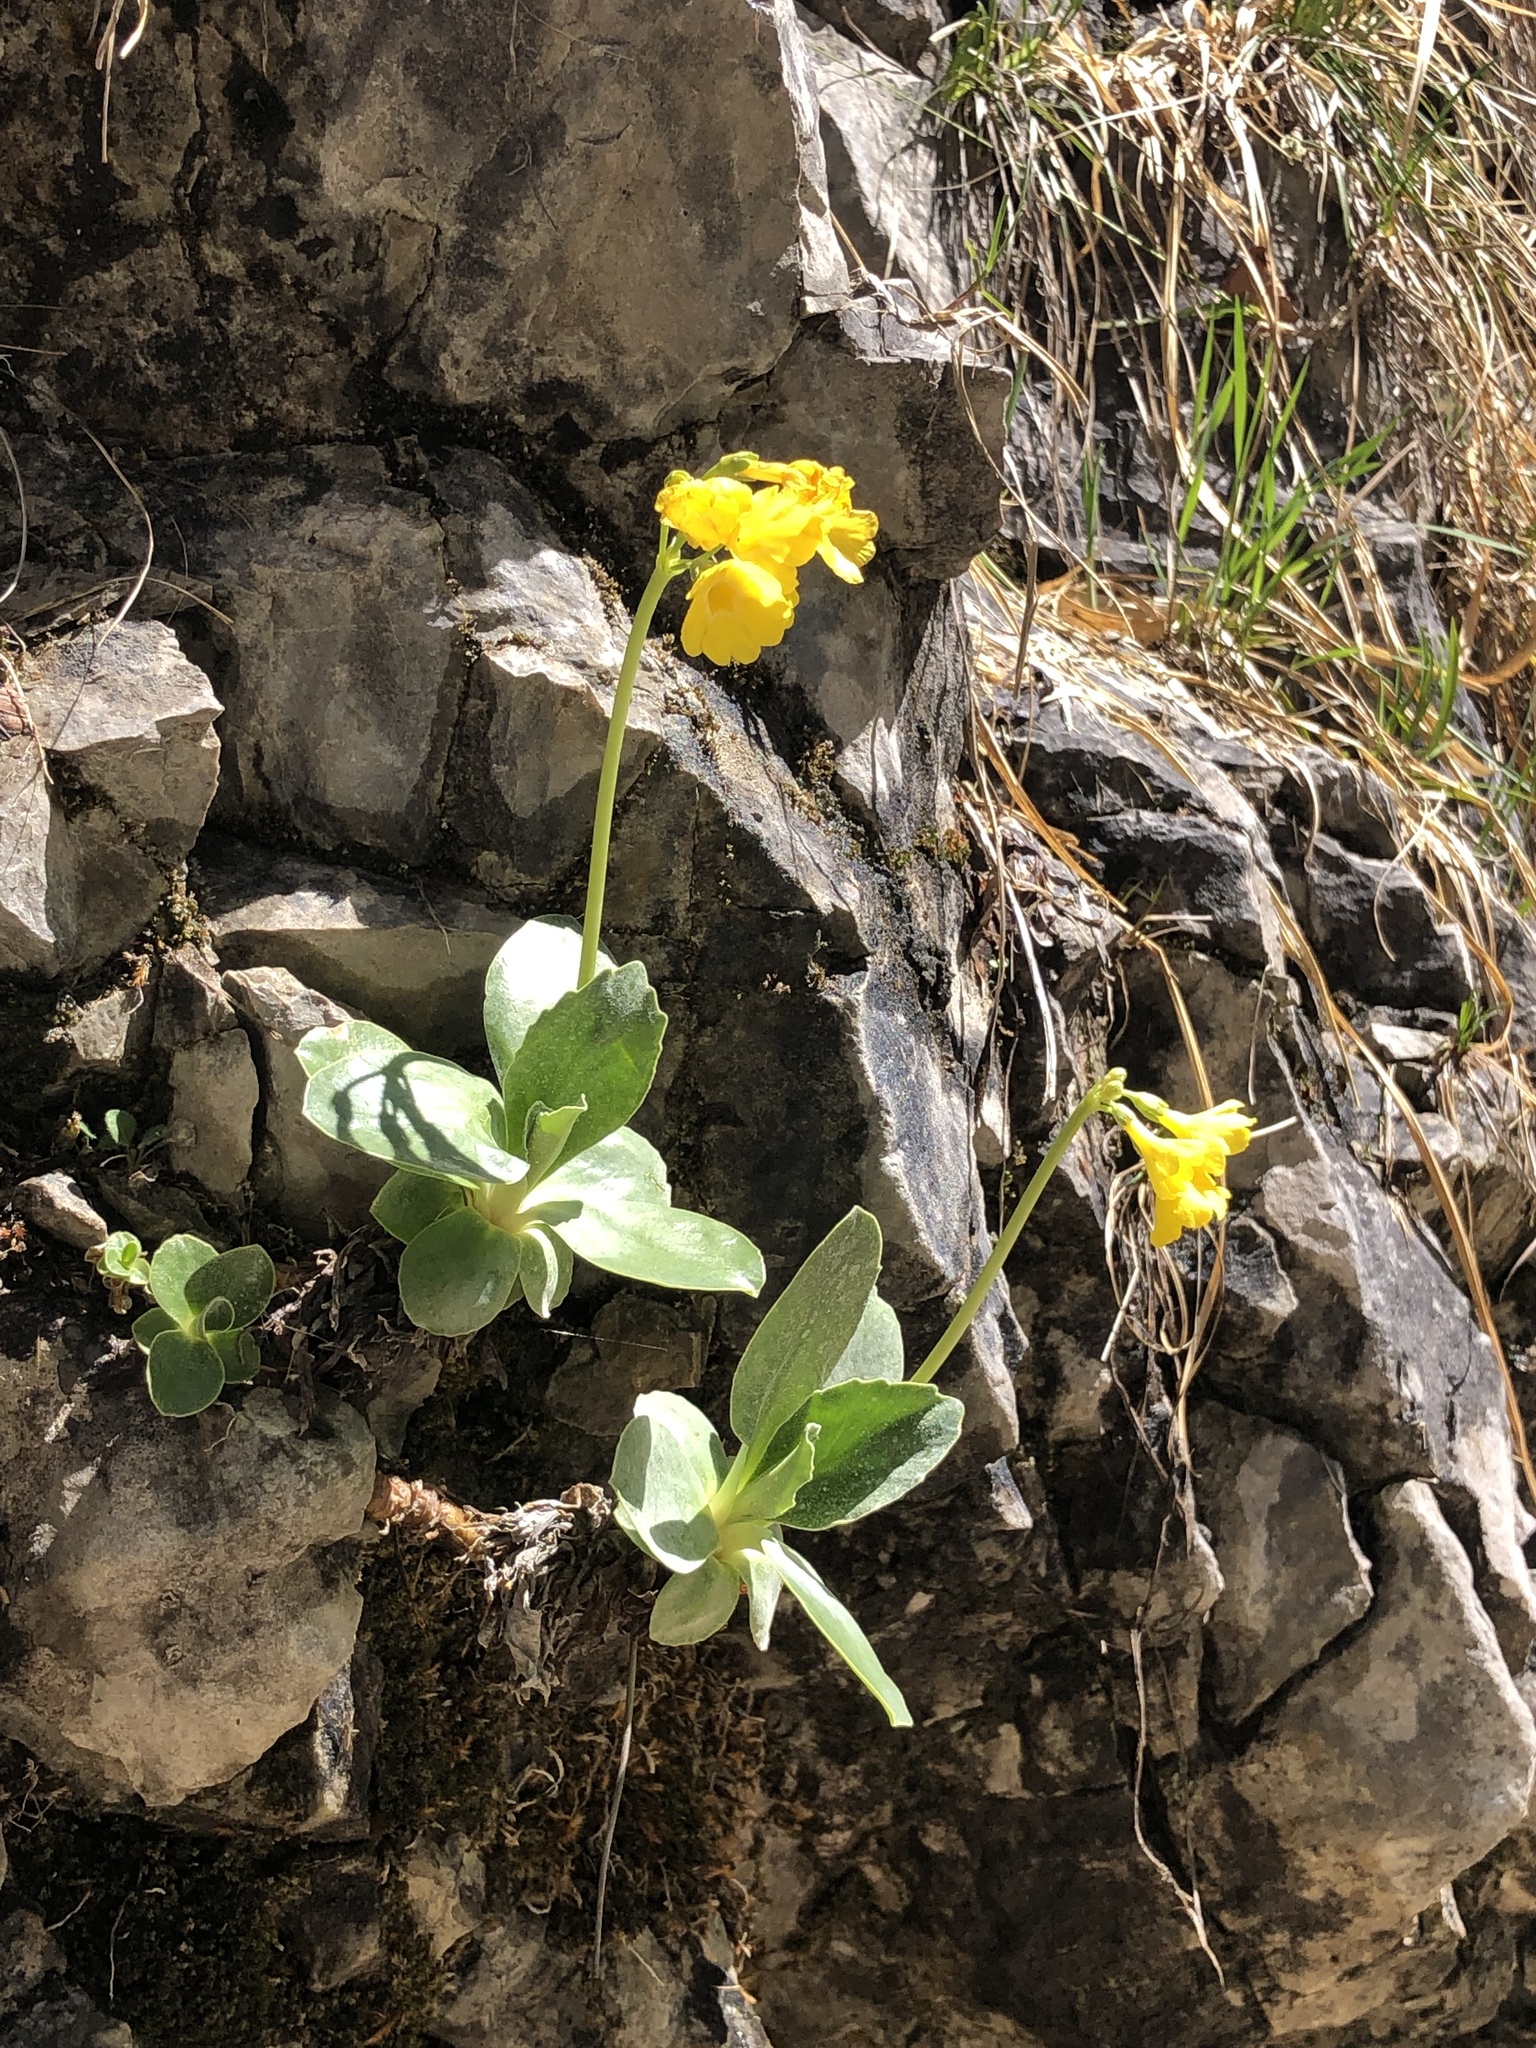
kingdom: Plantae
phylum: Tracheophyta
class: Magnoliopsida
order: Ericales
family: Primulaceae
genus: Primula
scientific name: Primula auricula
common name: Auricula
